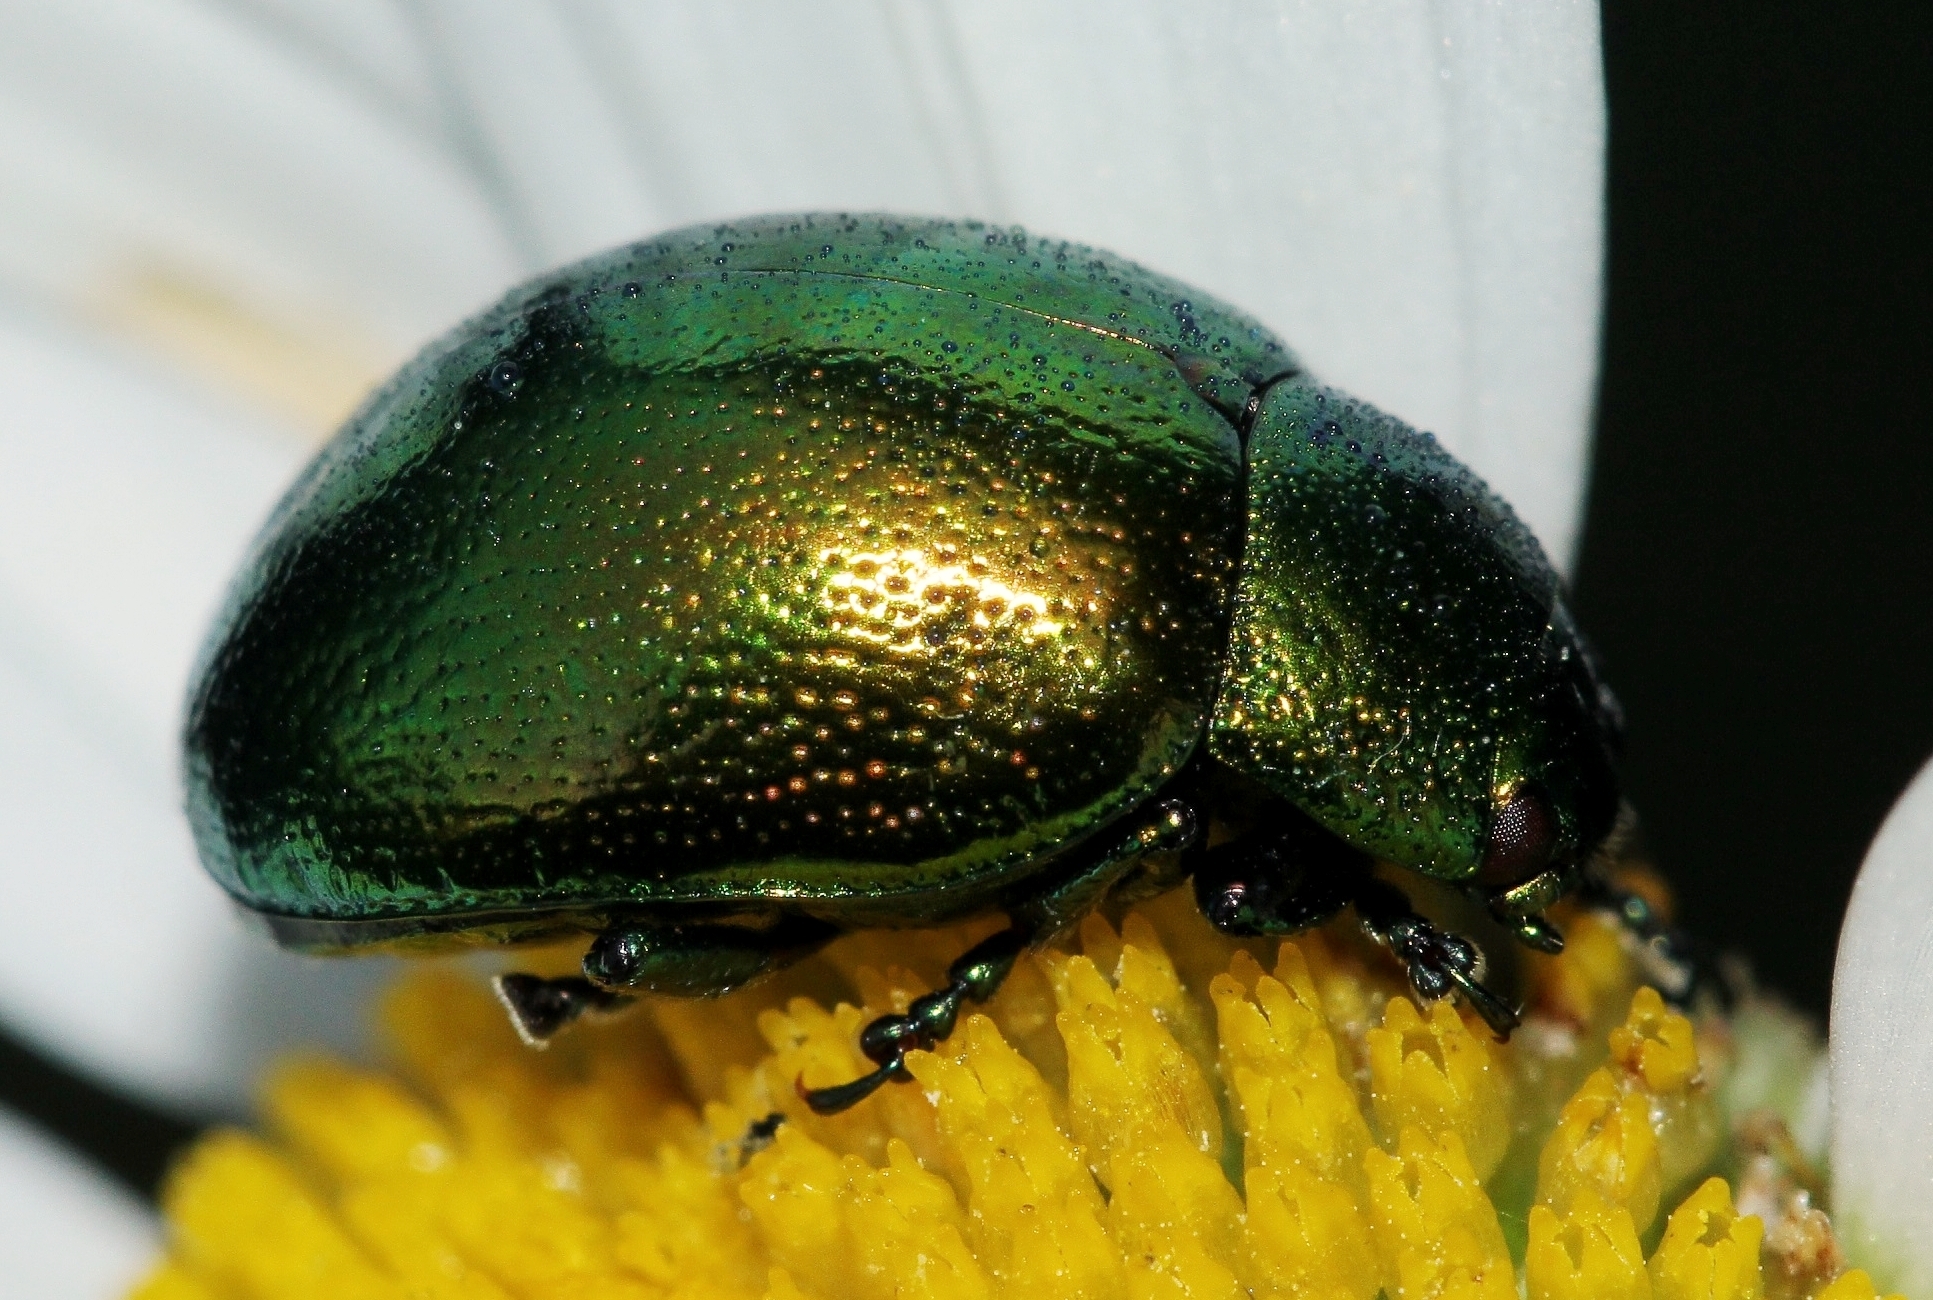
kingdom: Animalia
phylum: Arthropoda
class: Insecta
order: Coleoptera
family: Chrysomelidae
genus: Chrysolina
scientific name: Chrysolina herbacea
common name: Mint leaf beatle
